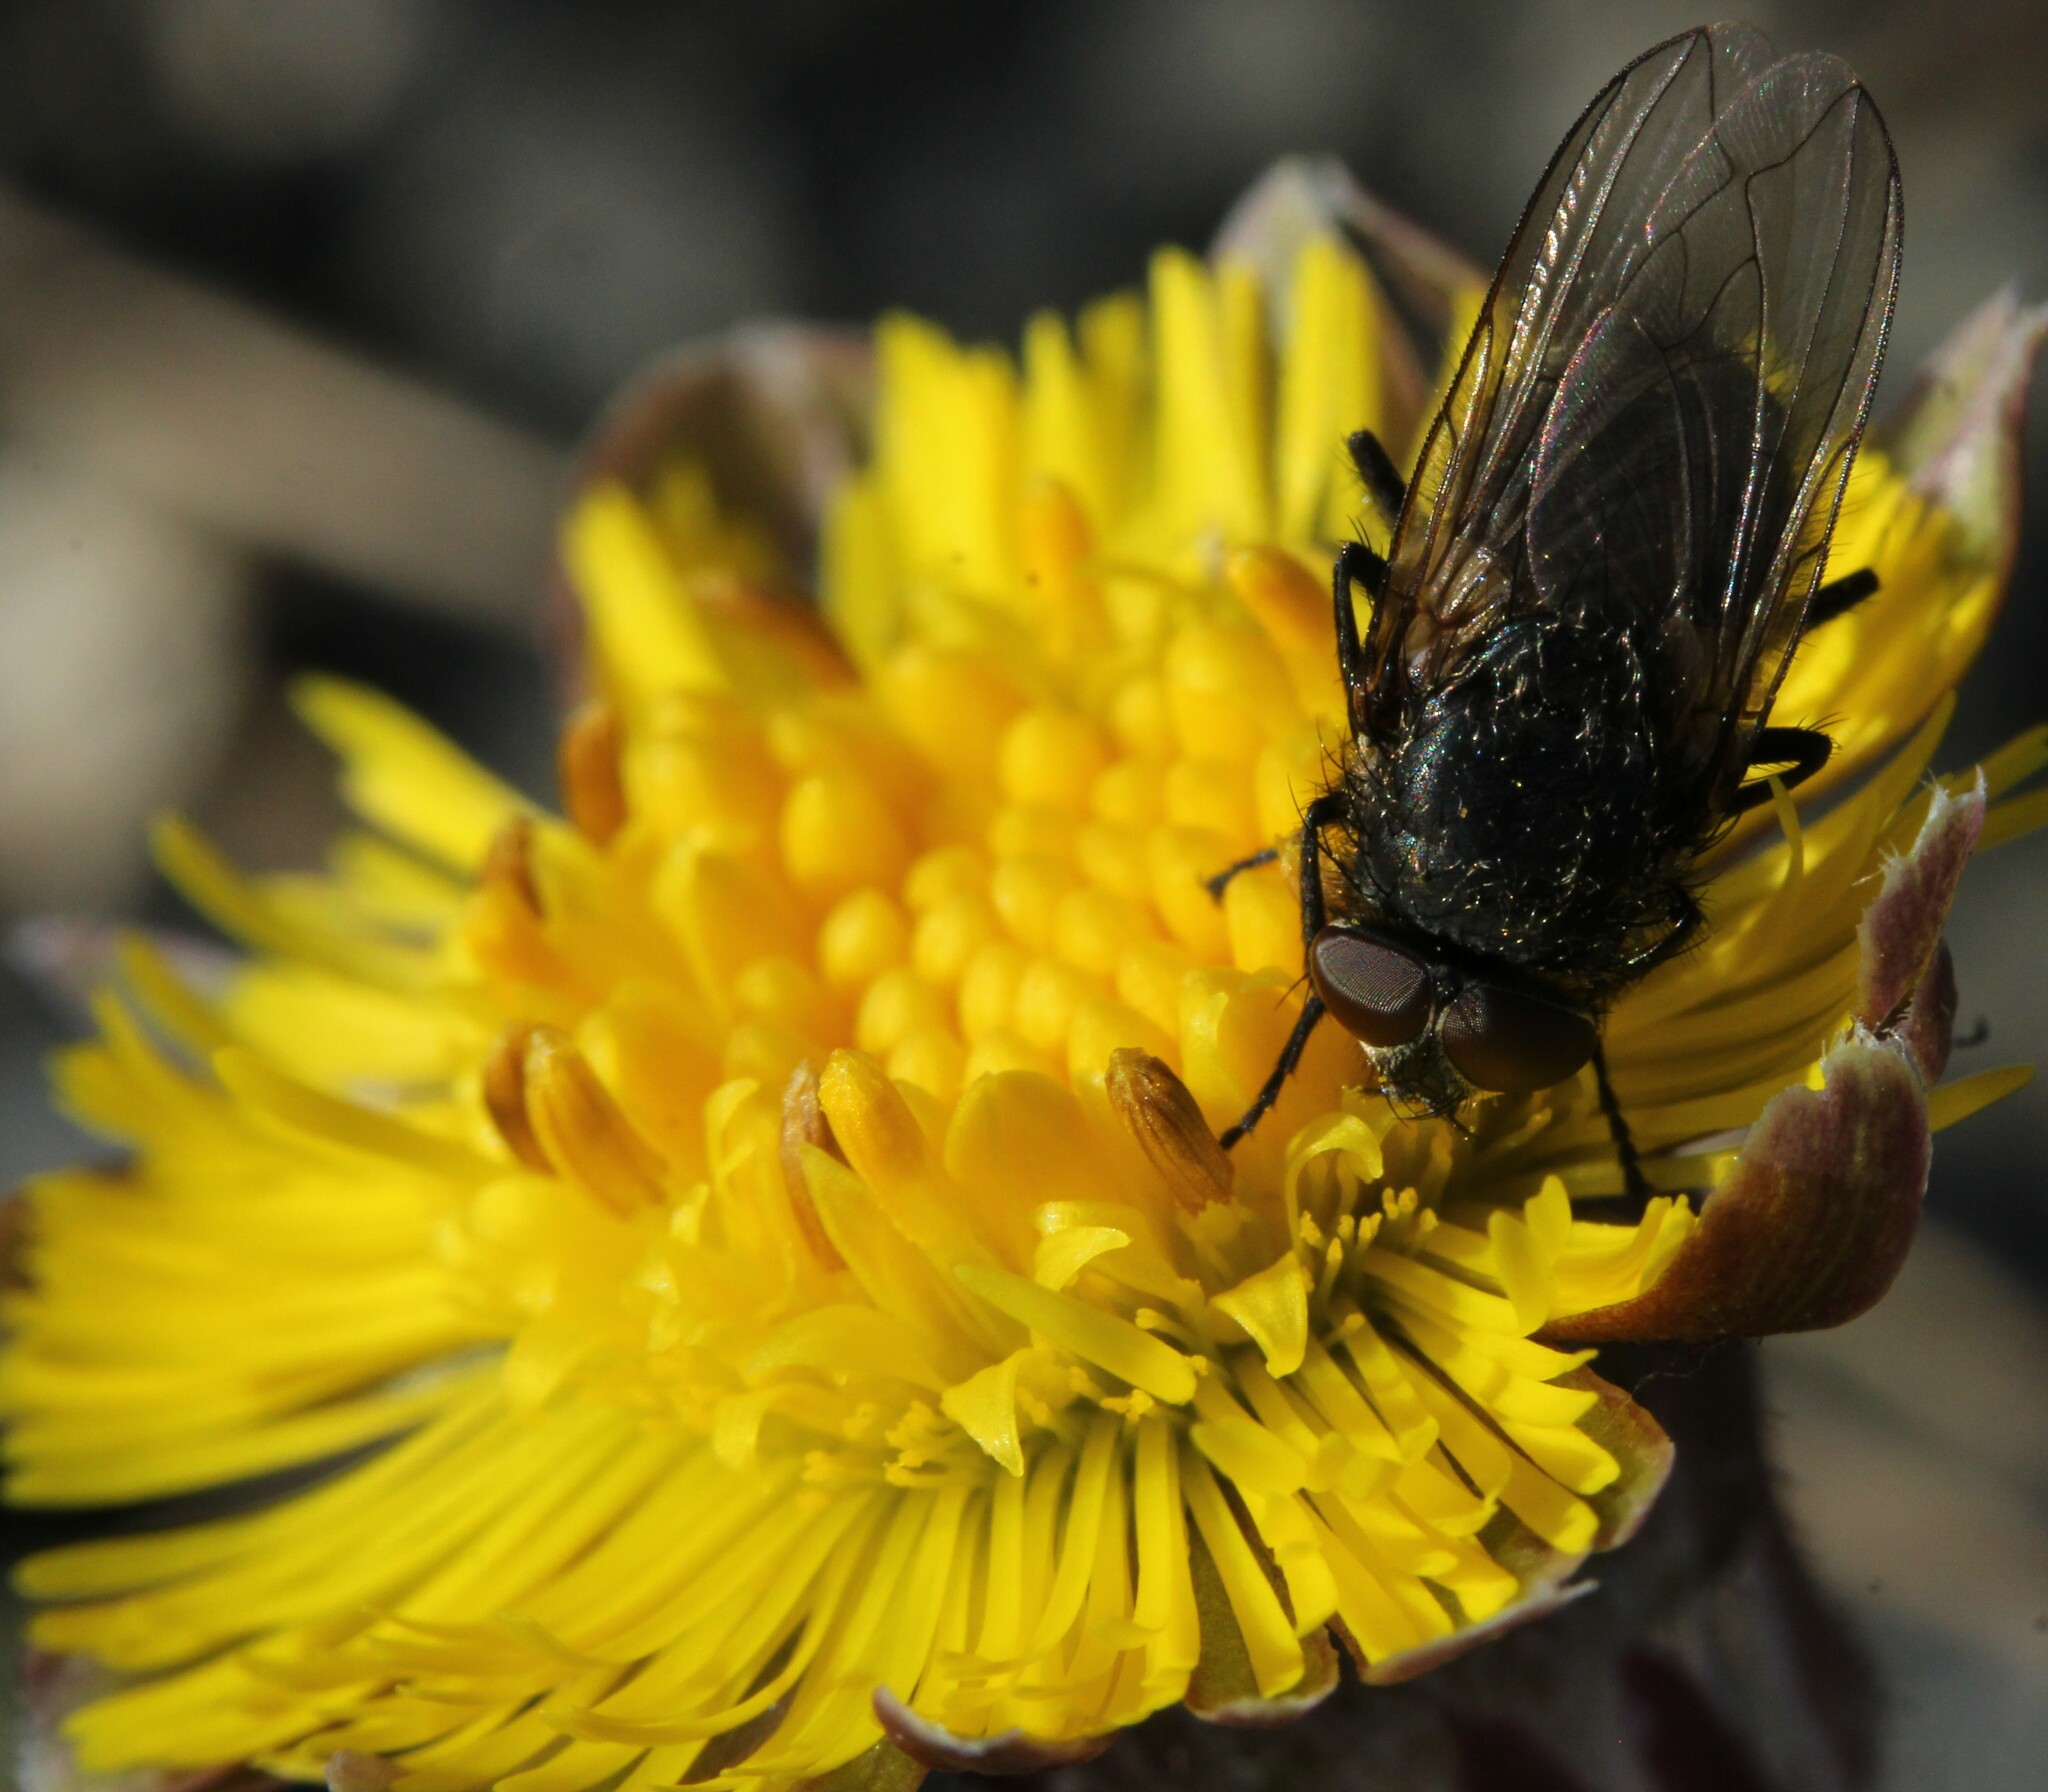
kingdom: Plantae
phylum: Tracheophyta
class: Magnoliopsida
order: Asterales
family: Asteraceae
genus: Tussilago
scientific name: Tussilago farfara
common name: Coltsfoot
